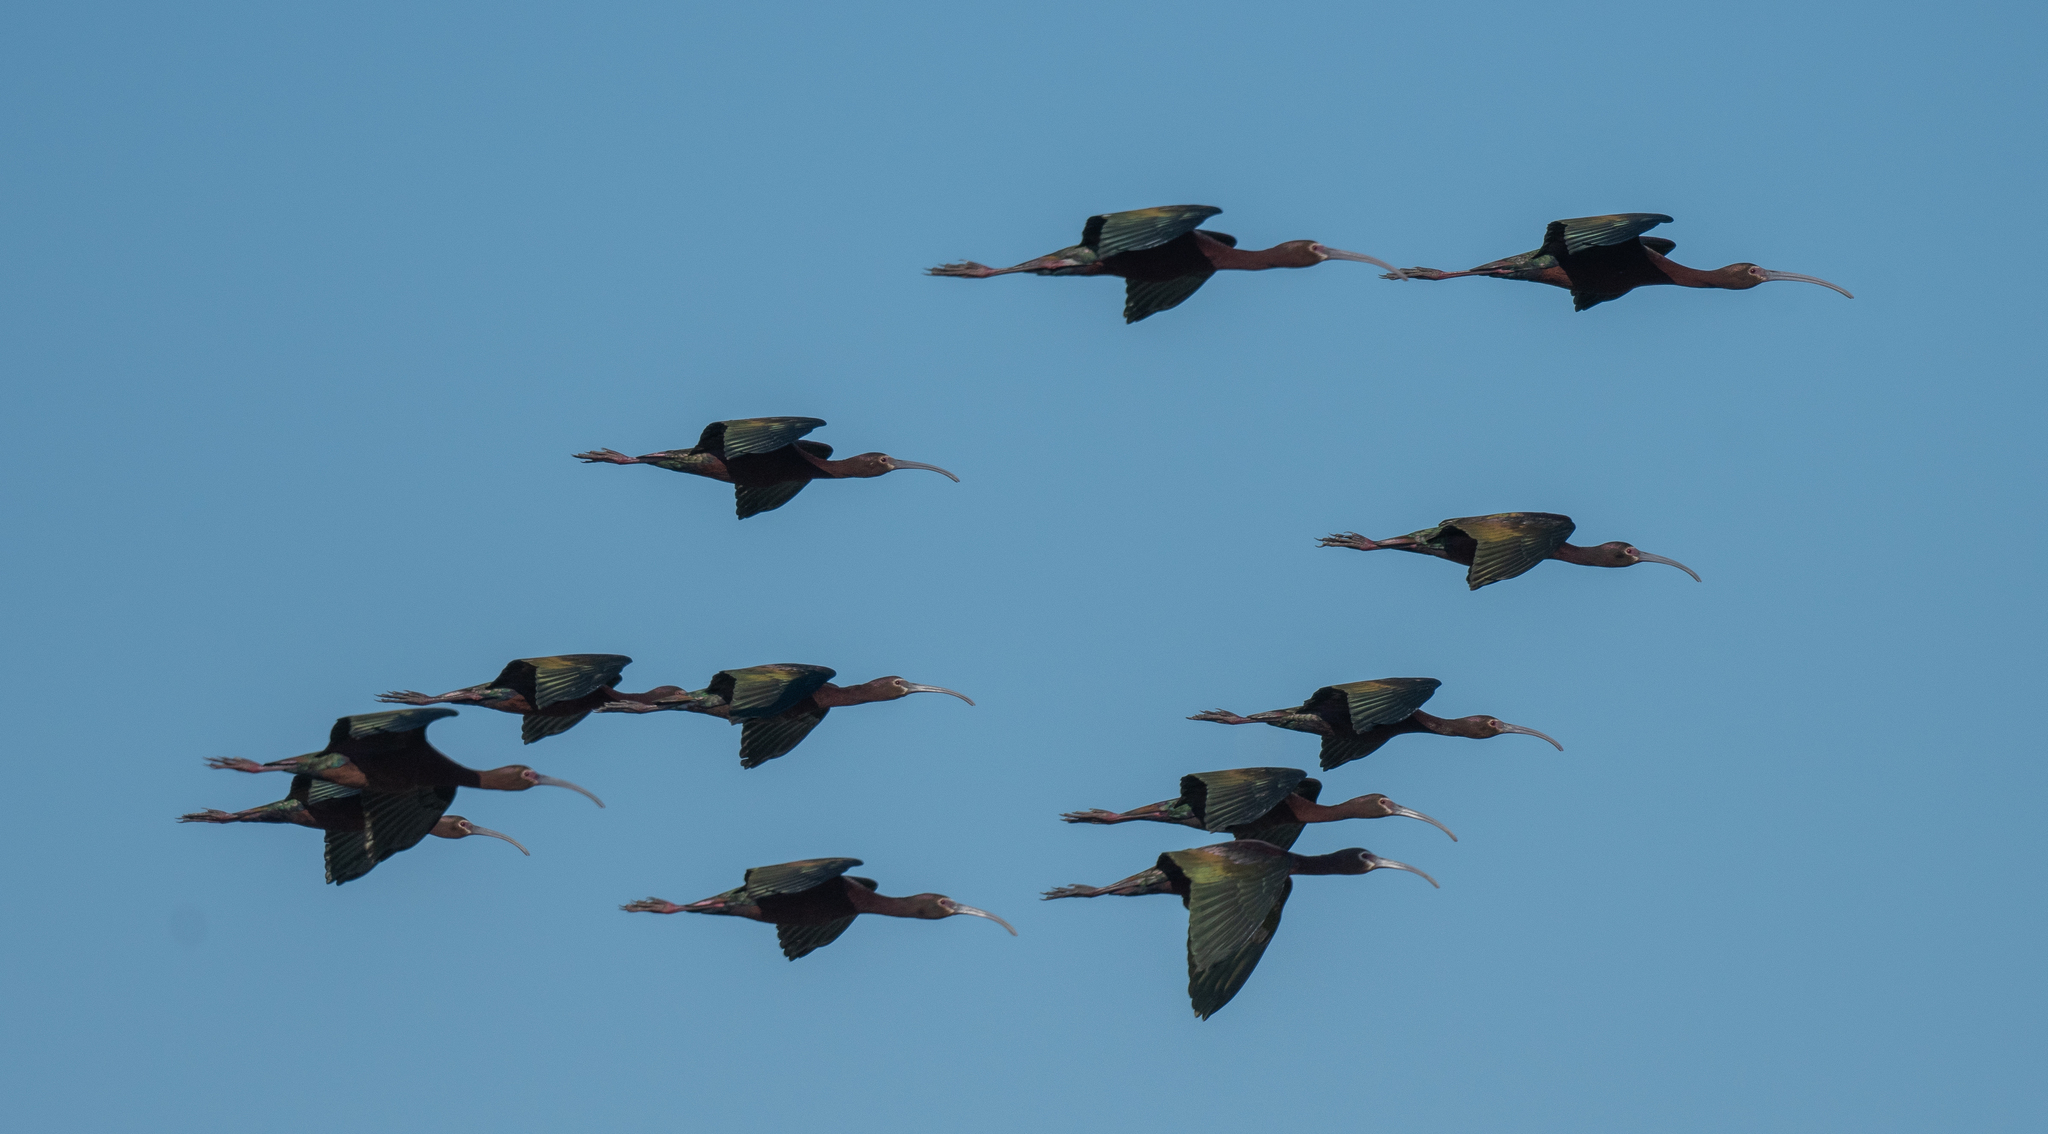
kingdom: Animalia
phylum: Chordata
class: Aves
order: Pelecaniformes
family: Threskiornithidae
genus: Plegadis
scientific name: Plegadis chihi
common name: White-faced ibis
